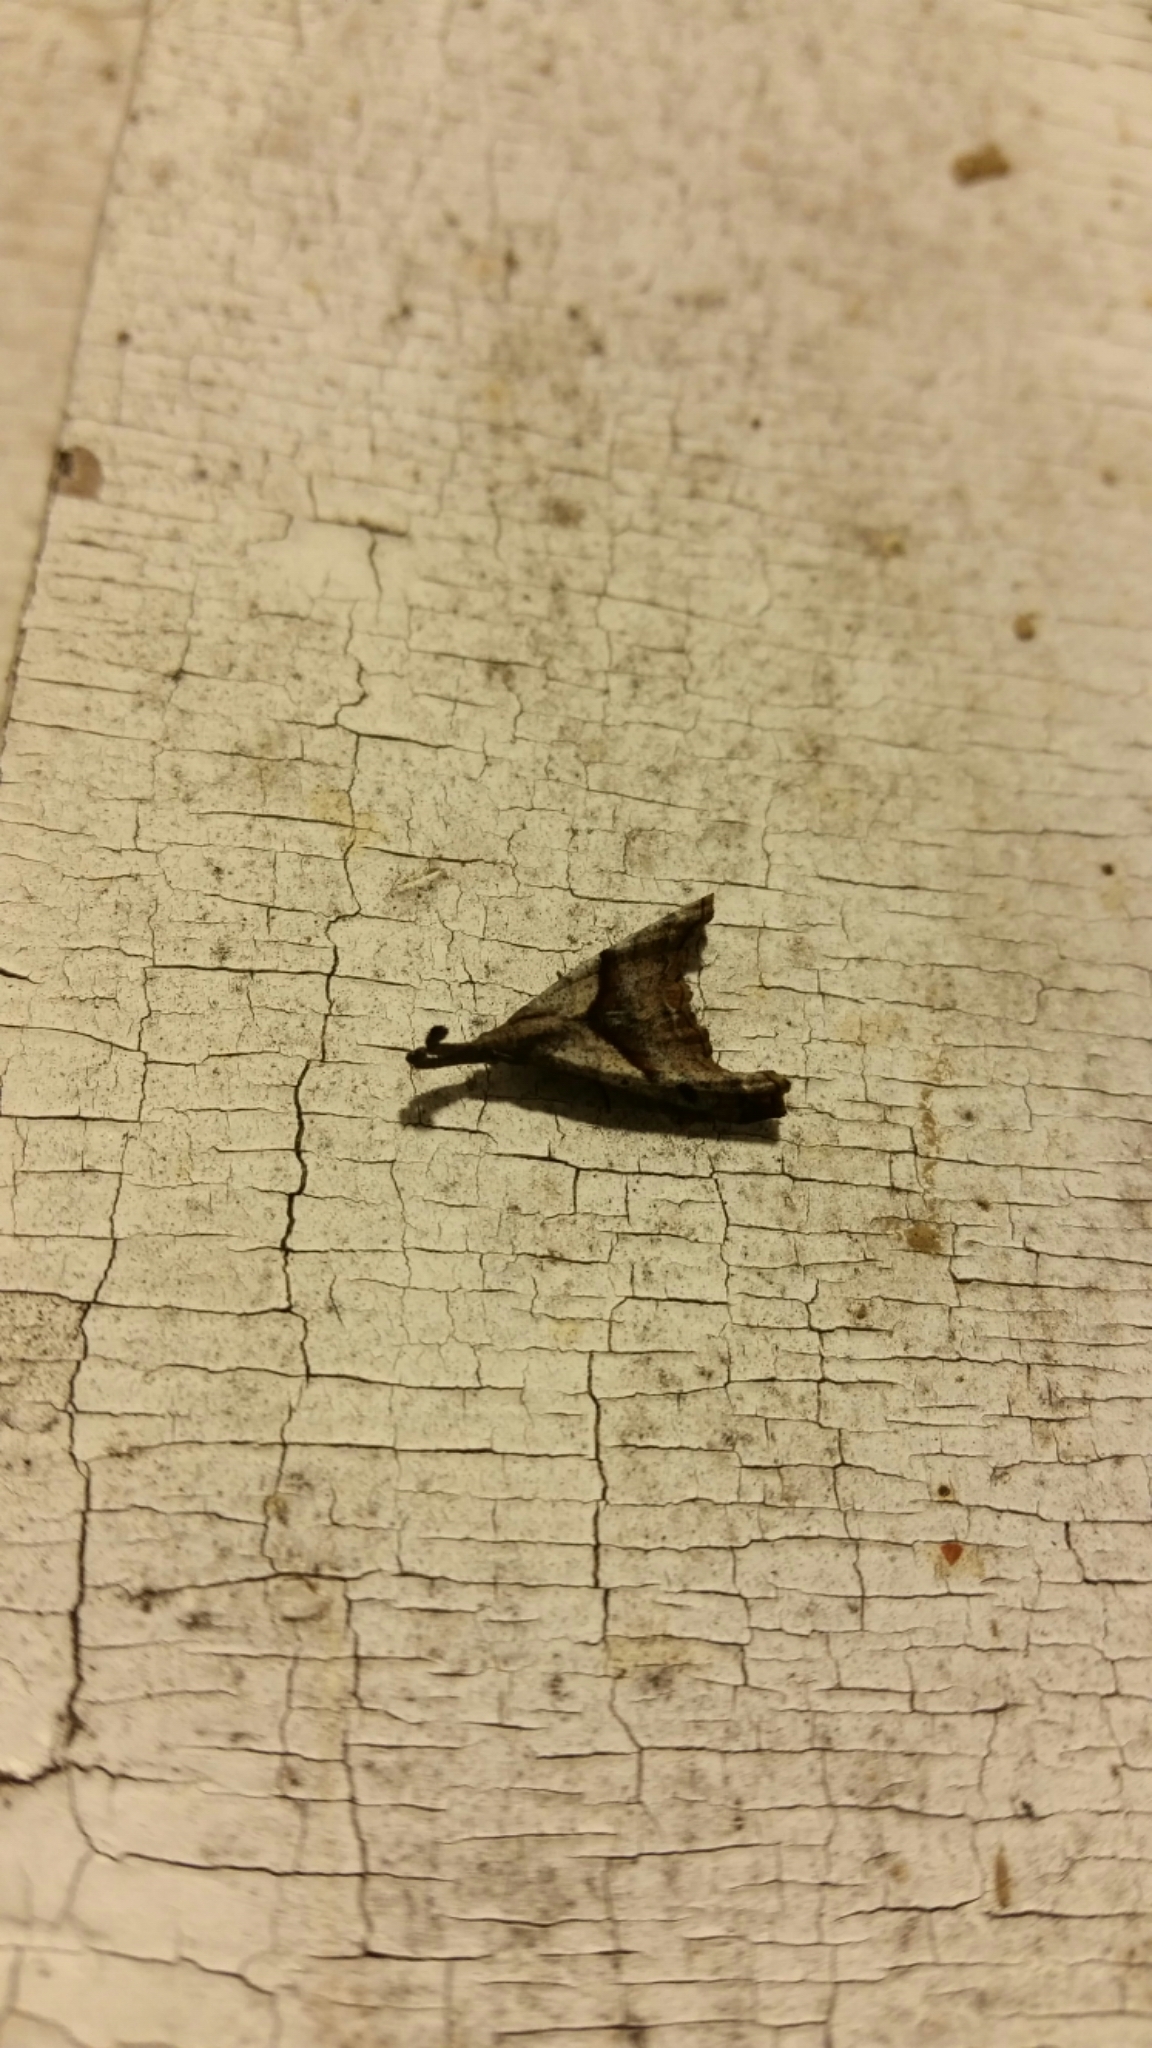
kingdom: Animalia
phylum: Arthropoda
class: Insecta
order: Lepidoptera
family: Erebidae
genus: Palthis
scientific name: Palthis angulalis
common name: Dark-spotted palthis moth
